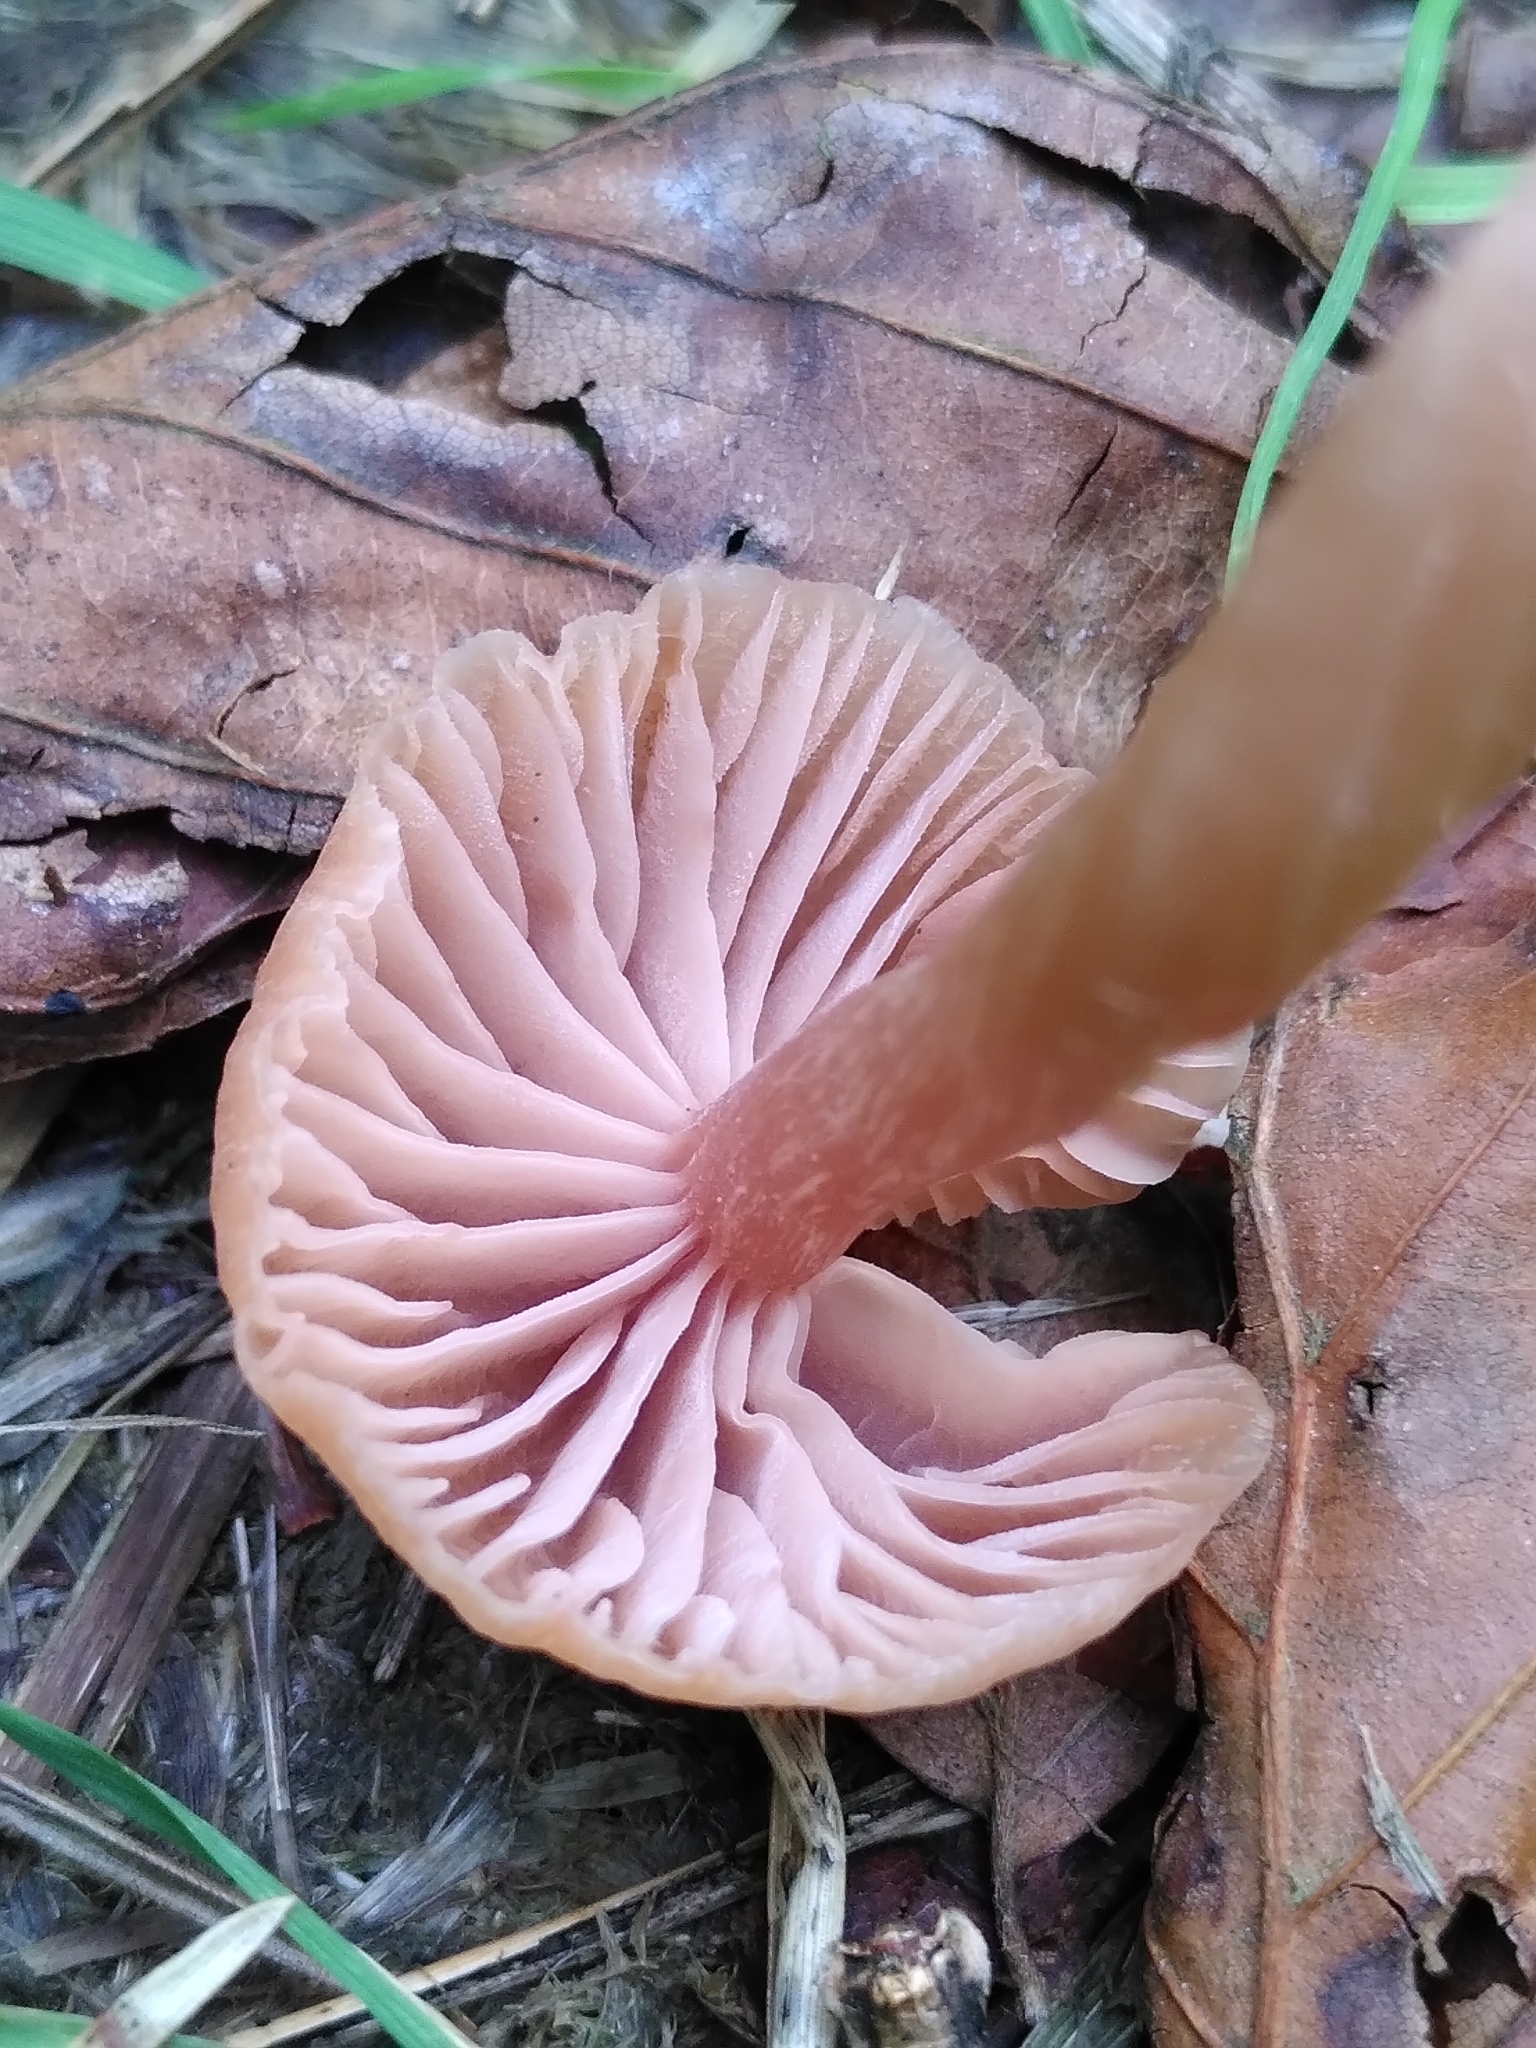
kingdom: Fungi
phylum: Basidiomycota
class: Agaricomycetes
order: Agaricales
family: Hydnangiaceae
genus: Laccaria
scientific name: Laccaria laccata
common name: Deceiver
